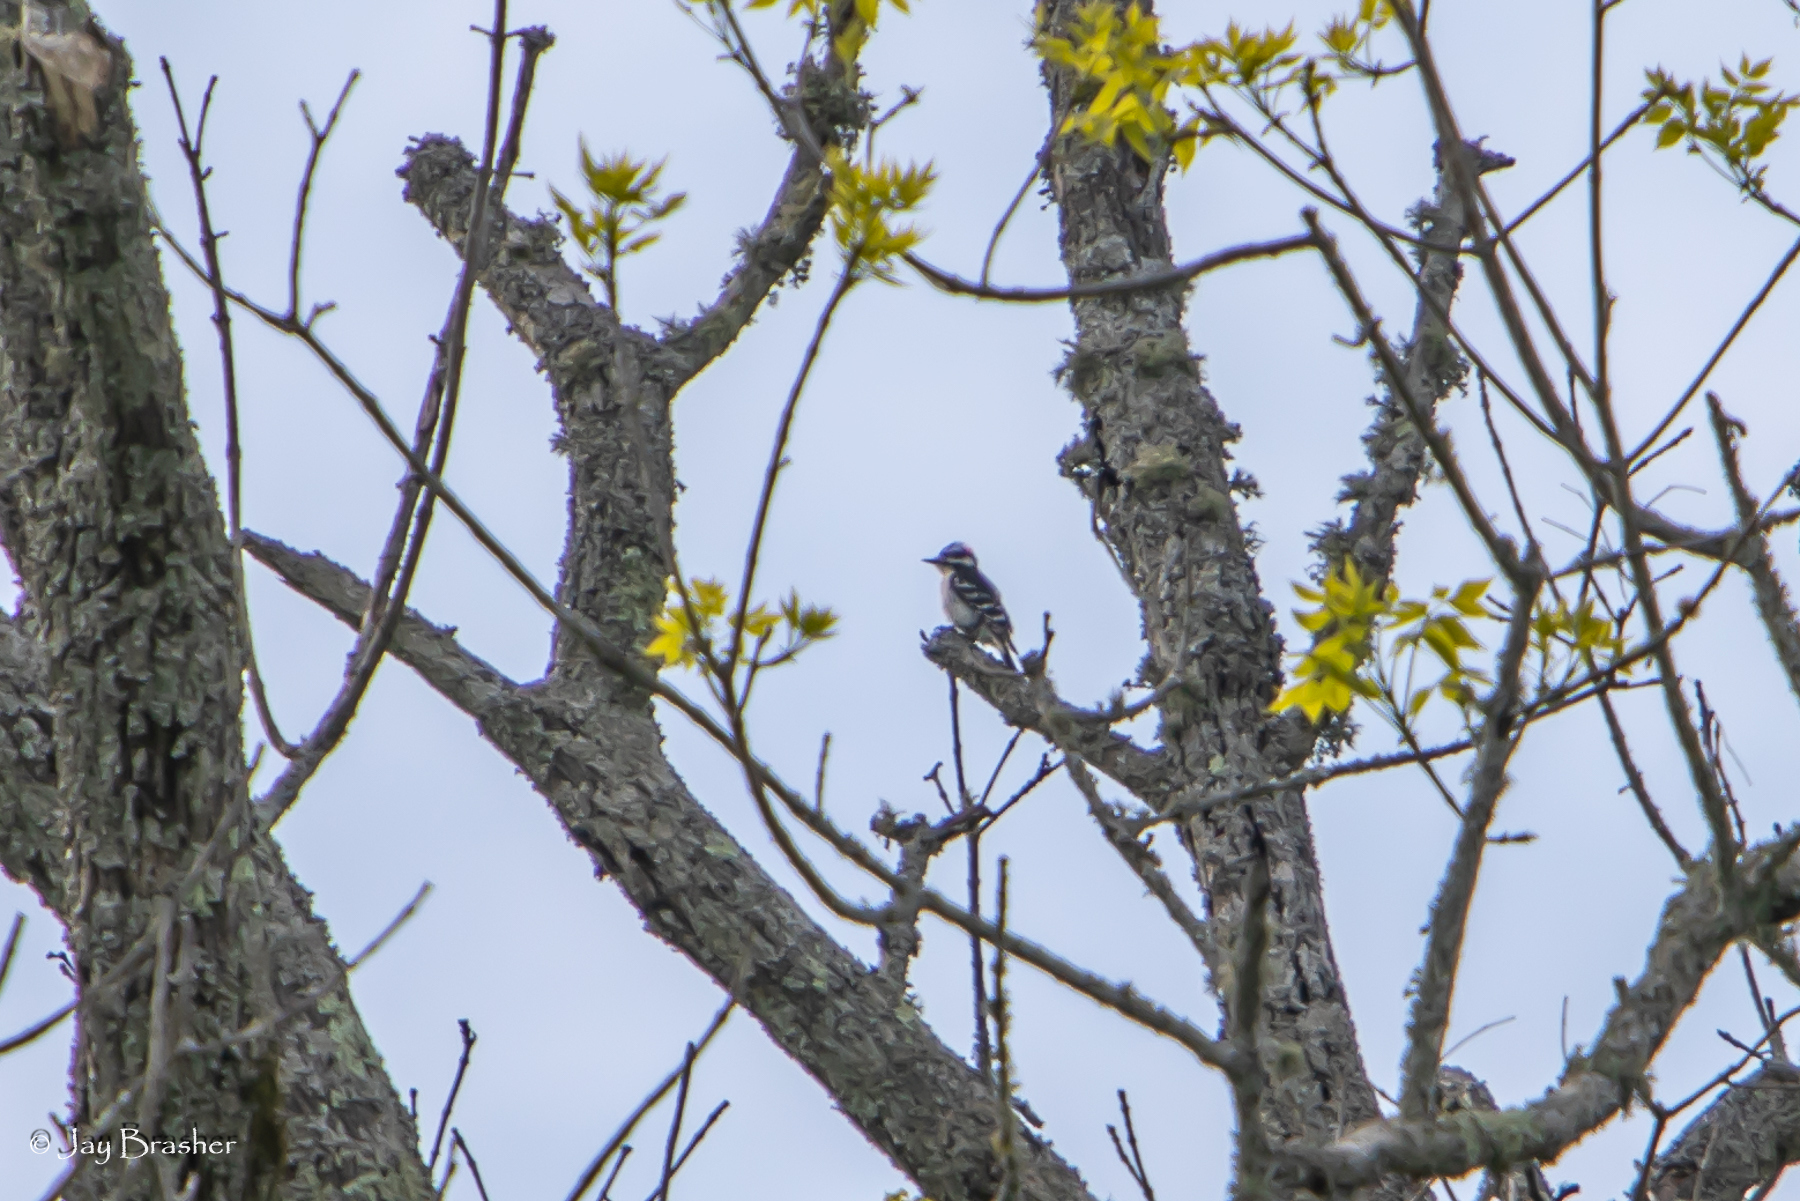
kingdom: Animalia
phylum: Chordata
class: Aves
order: Piciformes
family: Picidae
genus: Dryobates
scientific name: Dryobates pubescens
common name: Downy woodpecker
